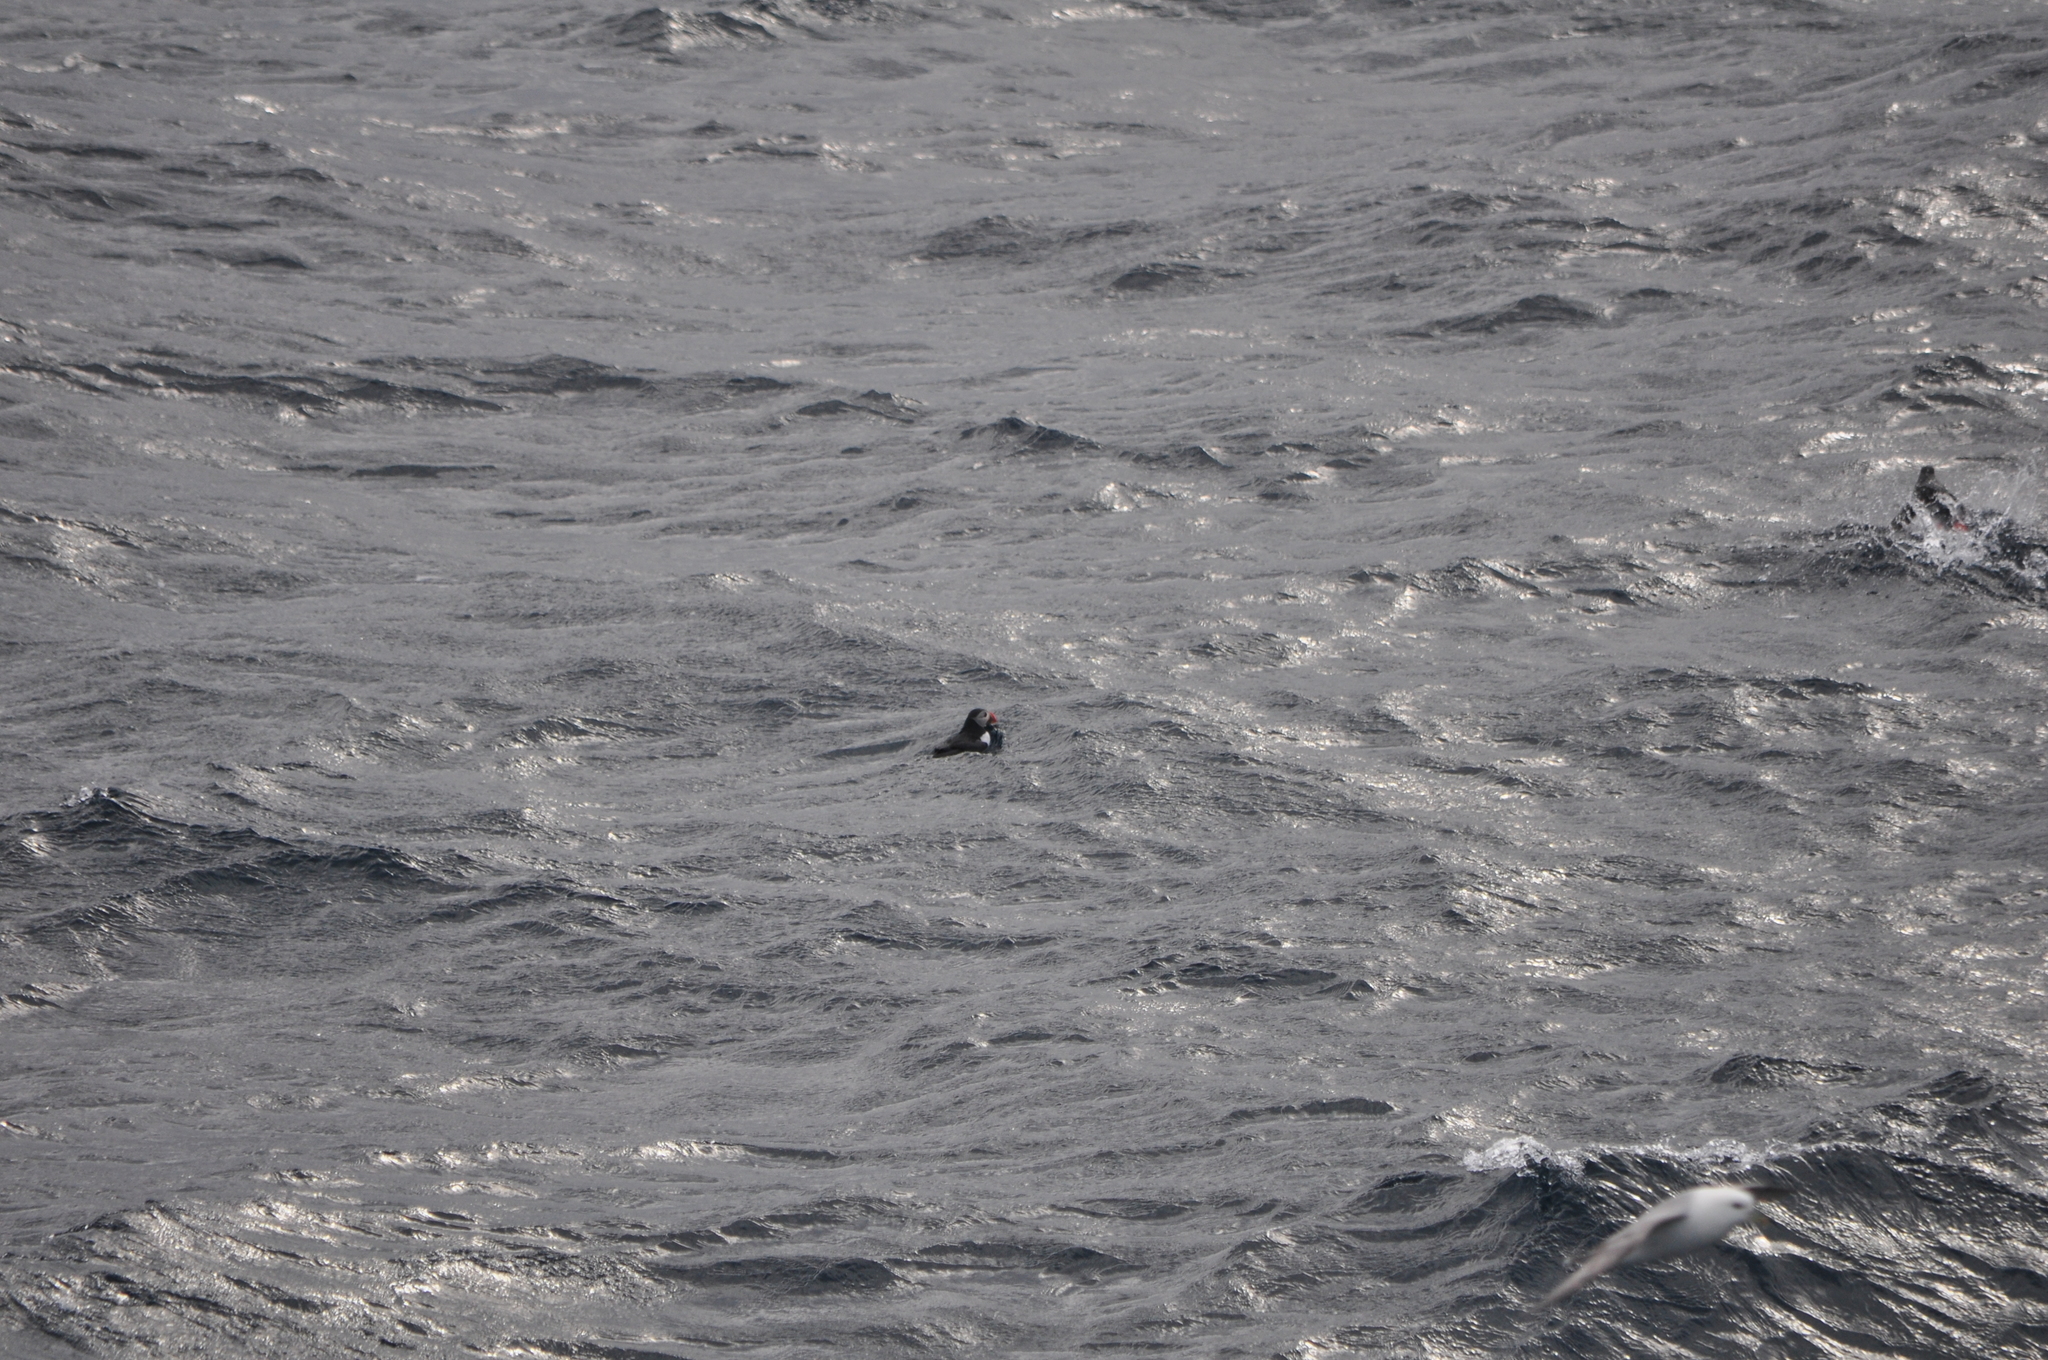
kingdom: Animalia
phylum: Chordata
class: Aves
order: Charadriiformes
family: Alcidae
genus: Fratercula
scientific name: Fratercula arctica
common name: Atlantic puffin
